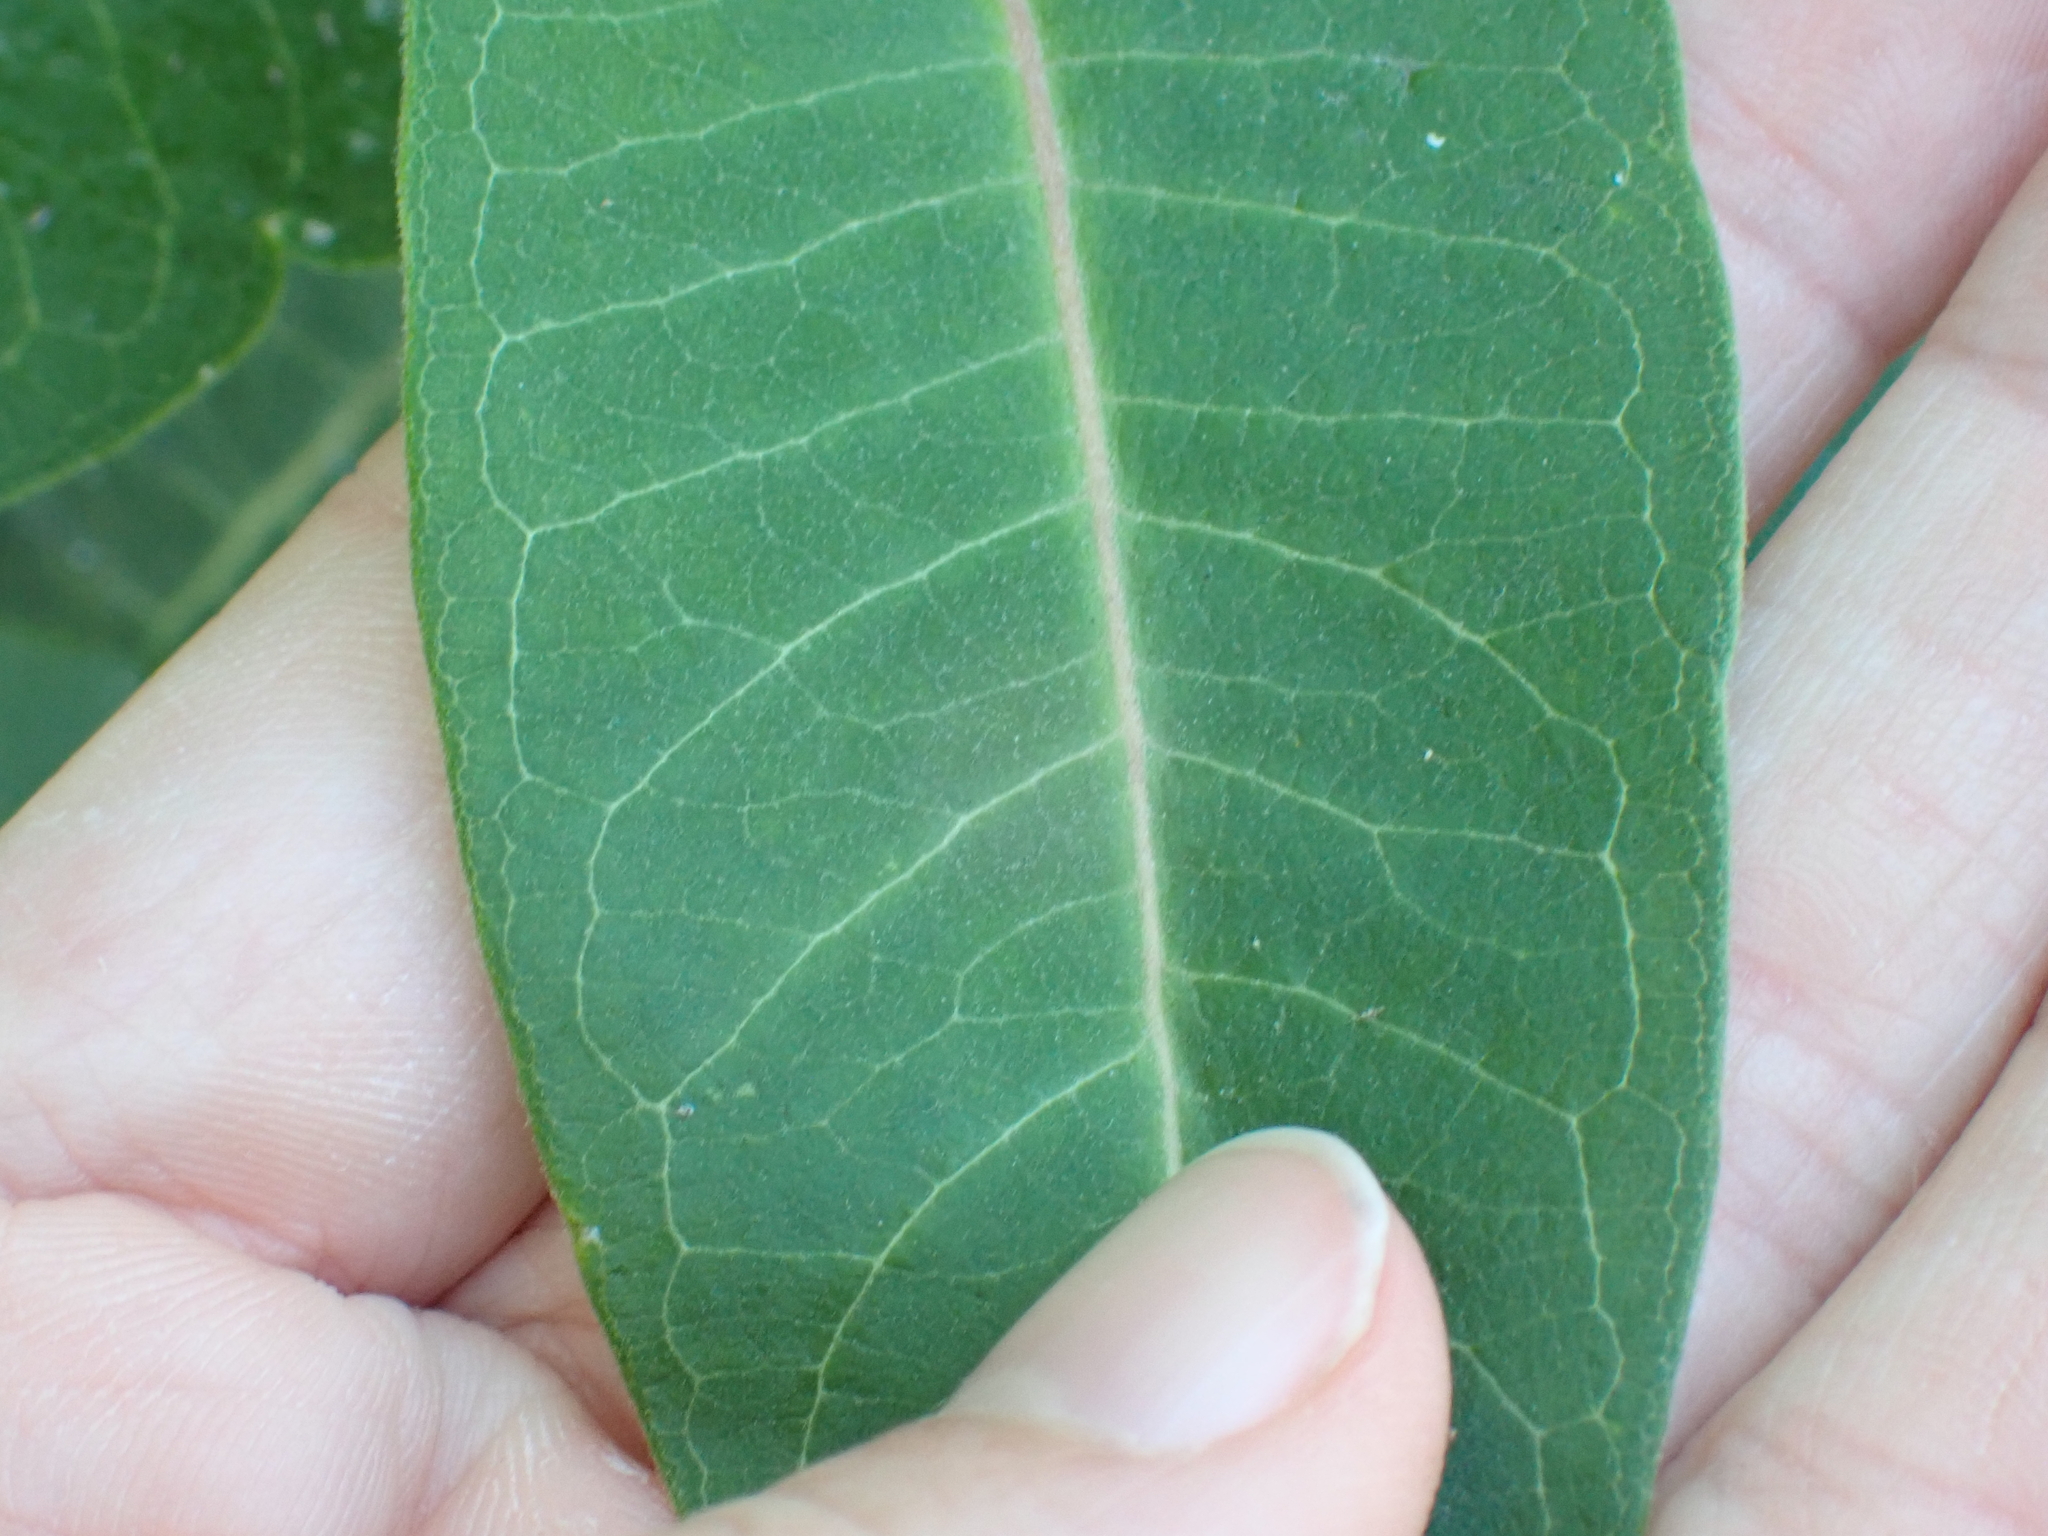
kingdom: Plantae
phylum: Tracheophyta
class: Magnoliopsida
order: Gentianales
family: Apocynaceae
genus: Asclepias
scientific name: Asclepias syriaca
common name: Common milkweed
